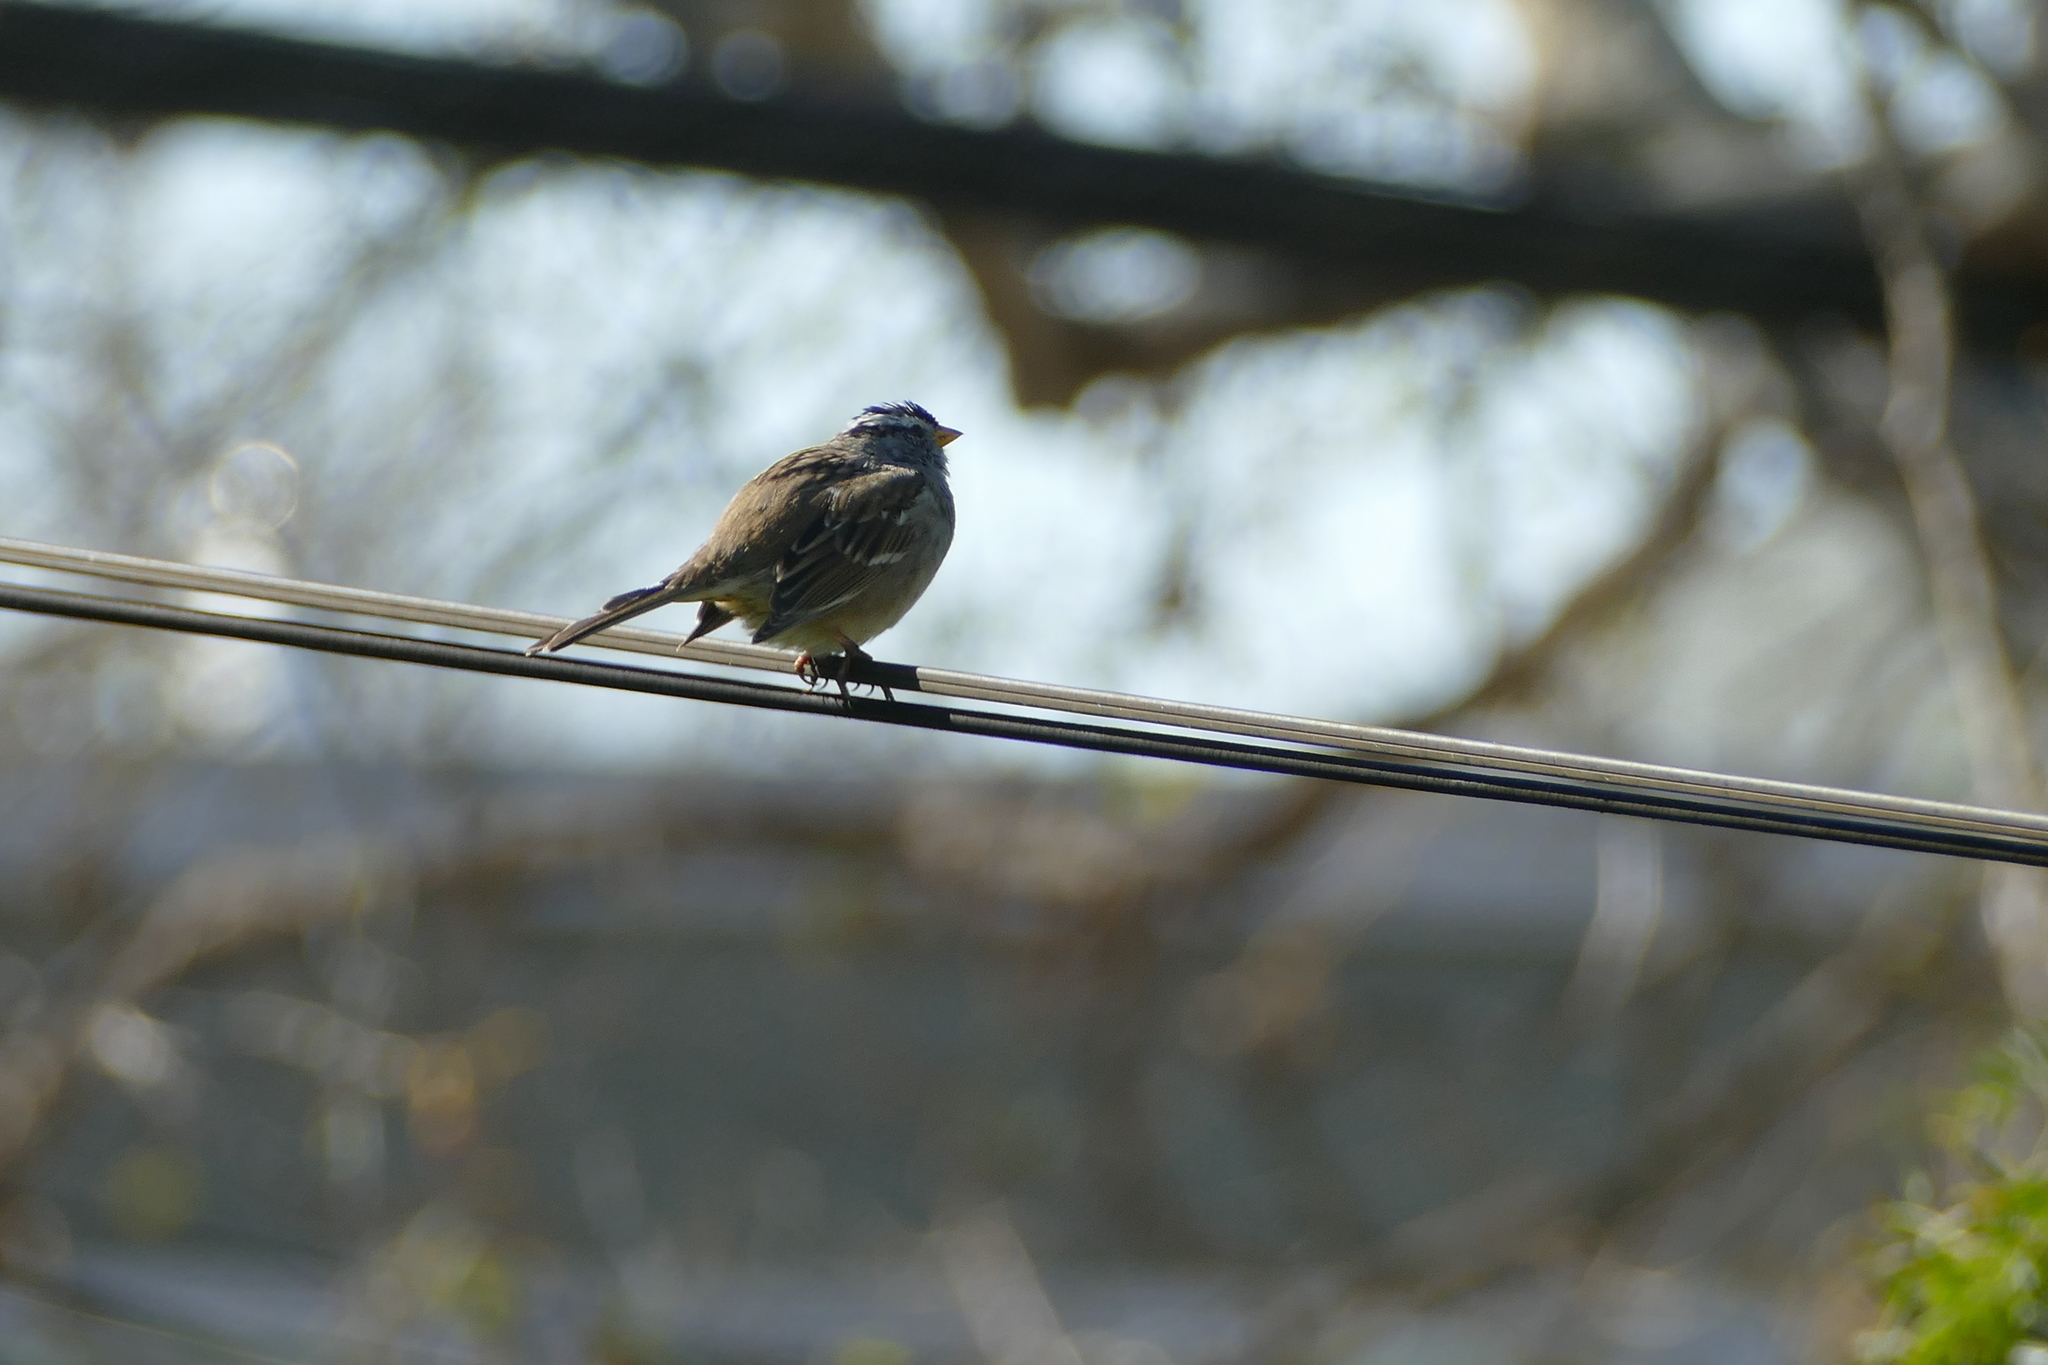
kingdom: Animalia
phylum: Chordata
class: Aves
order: Passeriformes
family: Passerellidae
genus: Zonotrichia
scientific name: Zonotrichia leucophrys
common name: White-crowned sparrow
